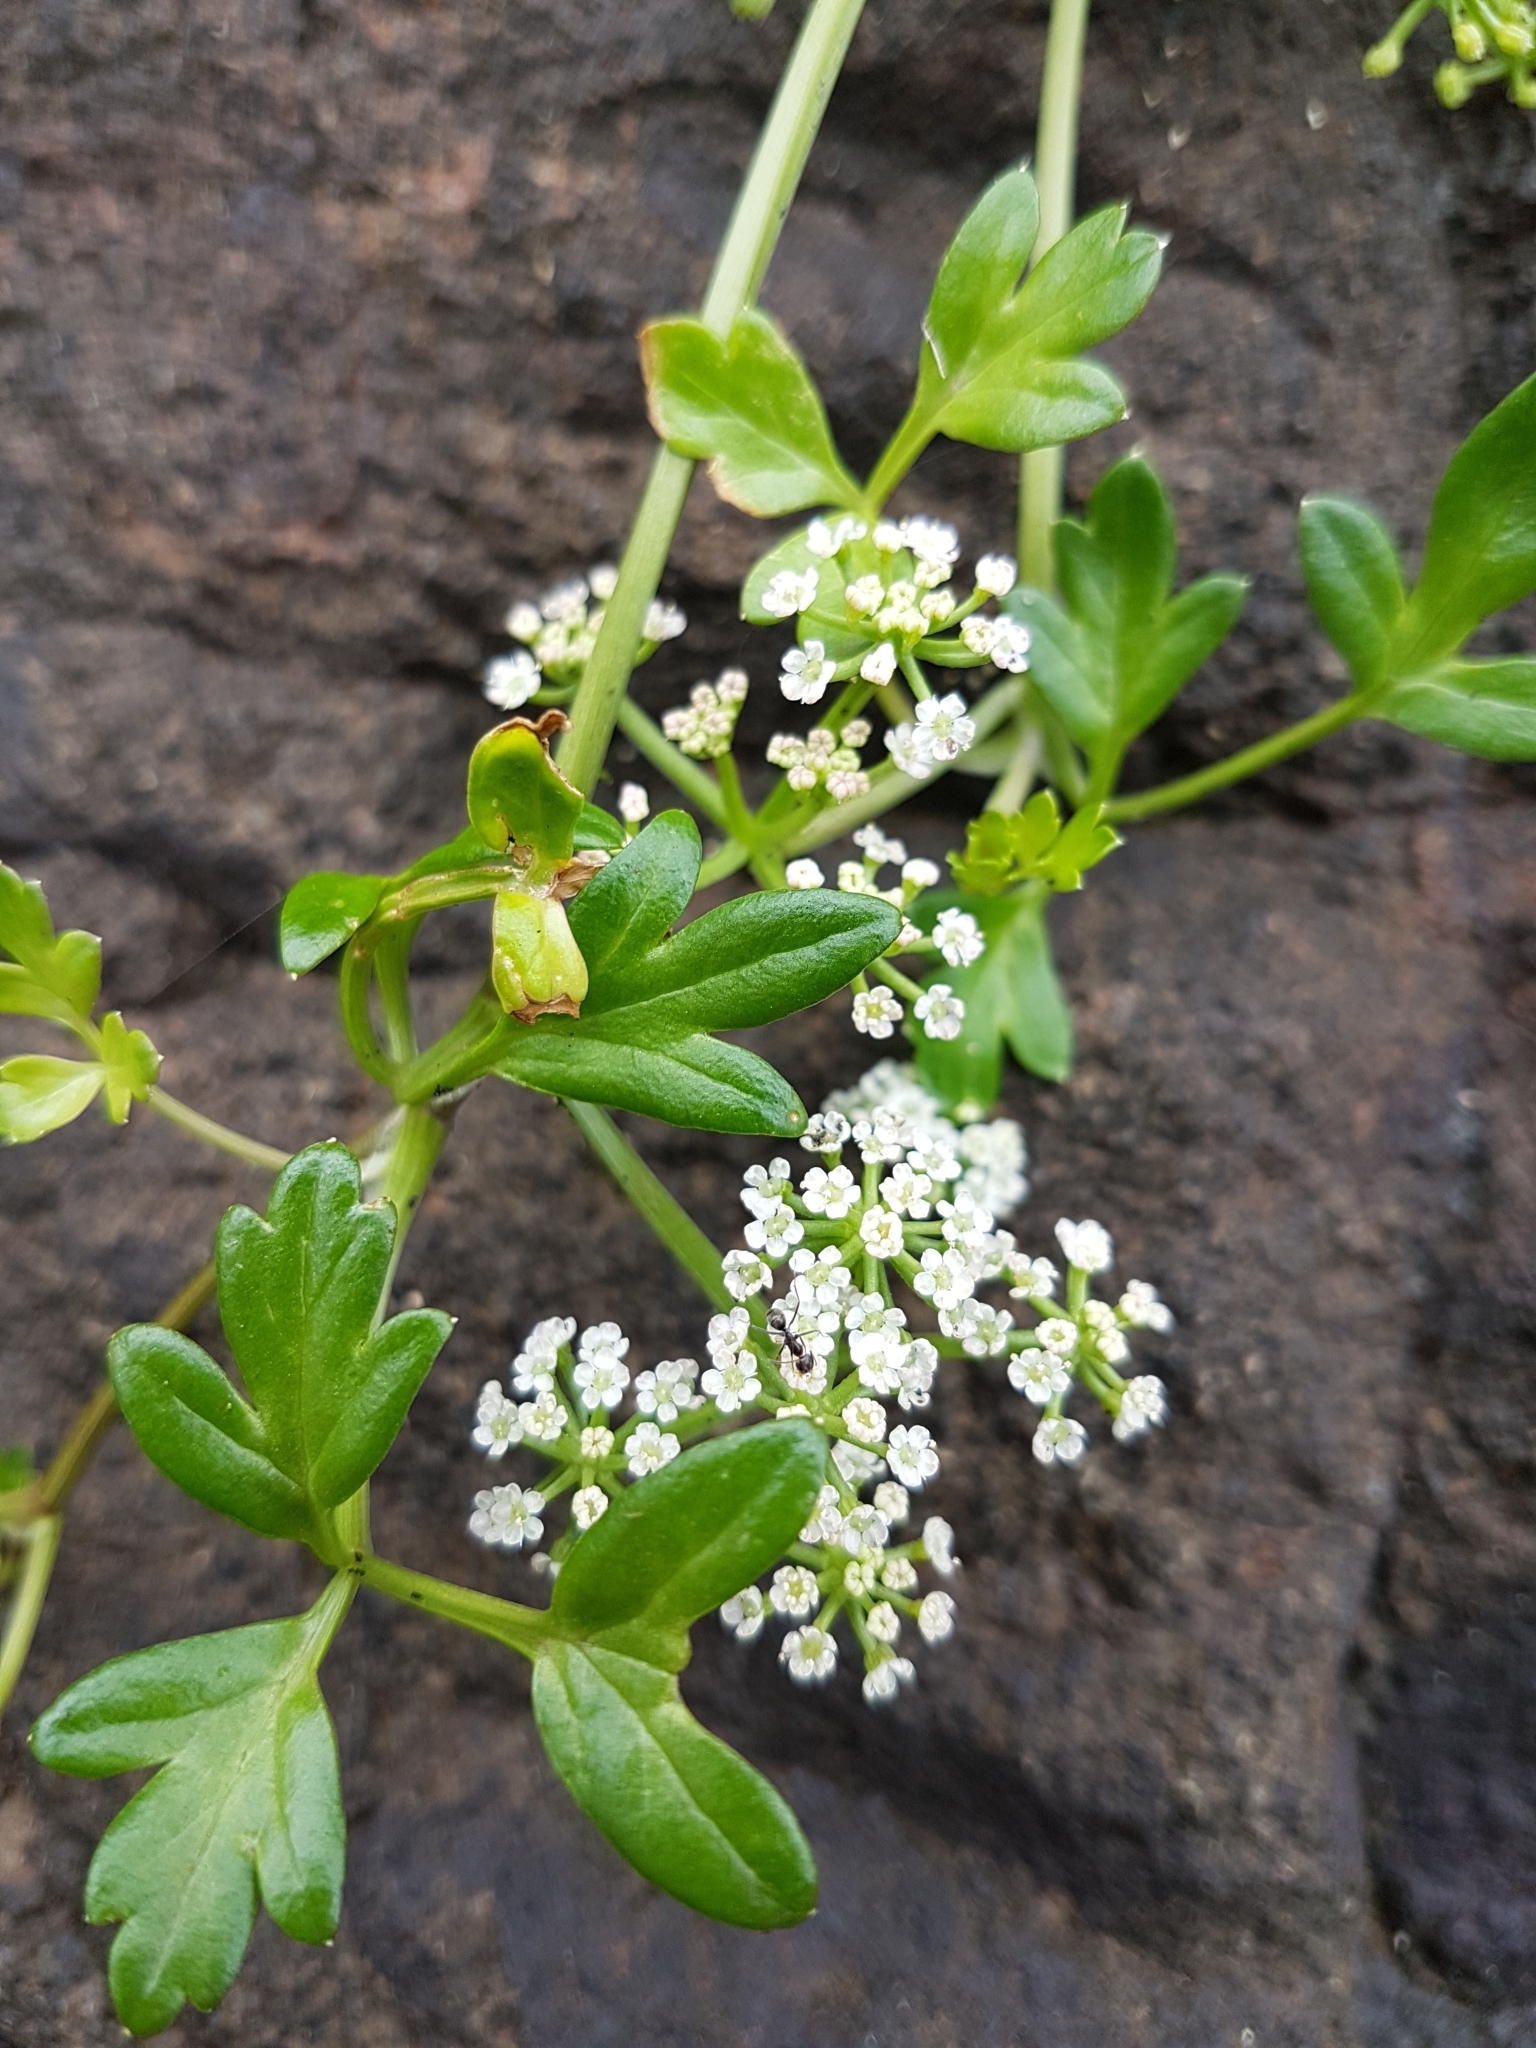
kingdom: Plantae
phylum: Tracheophyta
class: Magnoliopsida
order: Apiales
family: Apiaceae
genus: Apium
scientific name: Apium prostratum
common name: Prostrate marshwort
